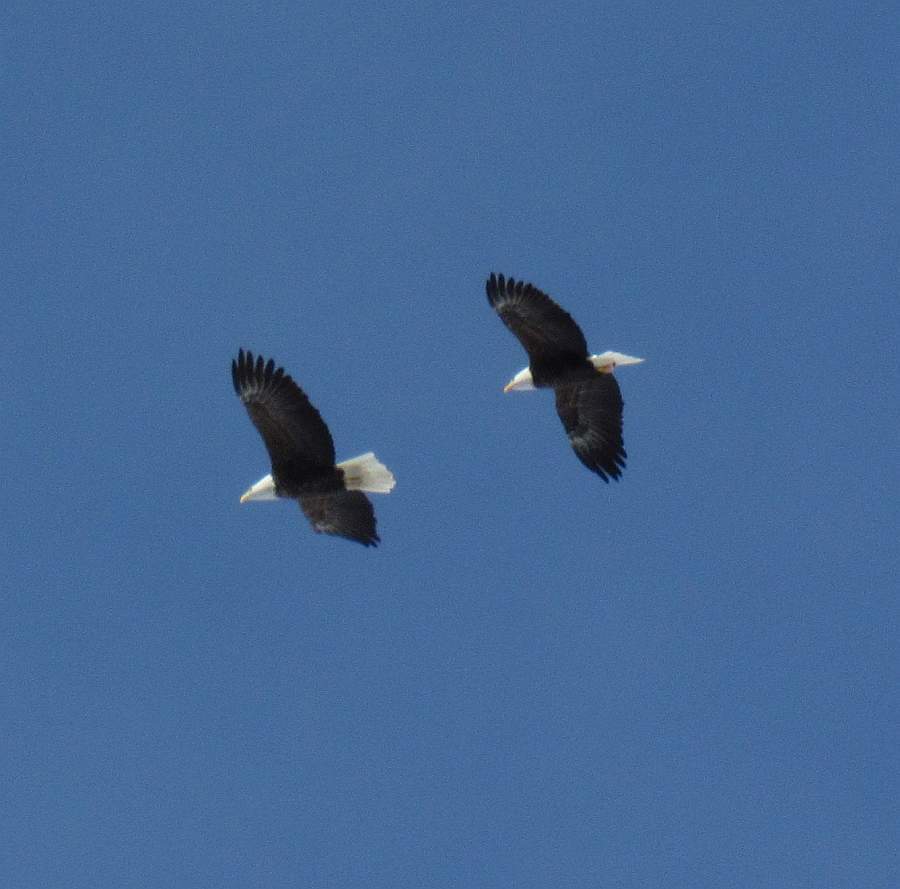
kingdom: Animalia
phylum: Chordata
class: Aves
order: Accipitriformes
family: Accipitridae
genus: Haliaeetus
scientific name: Haliaeetus leucocephalus
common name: Bald eagle
